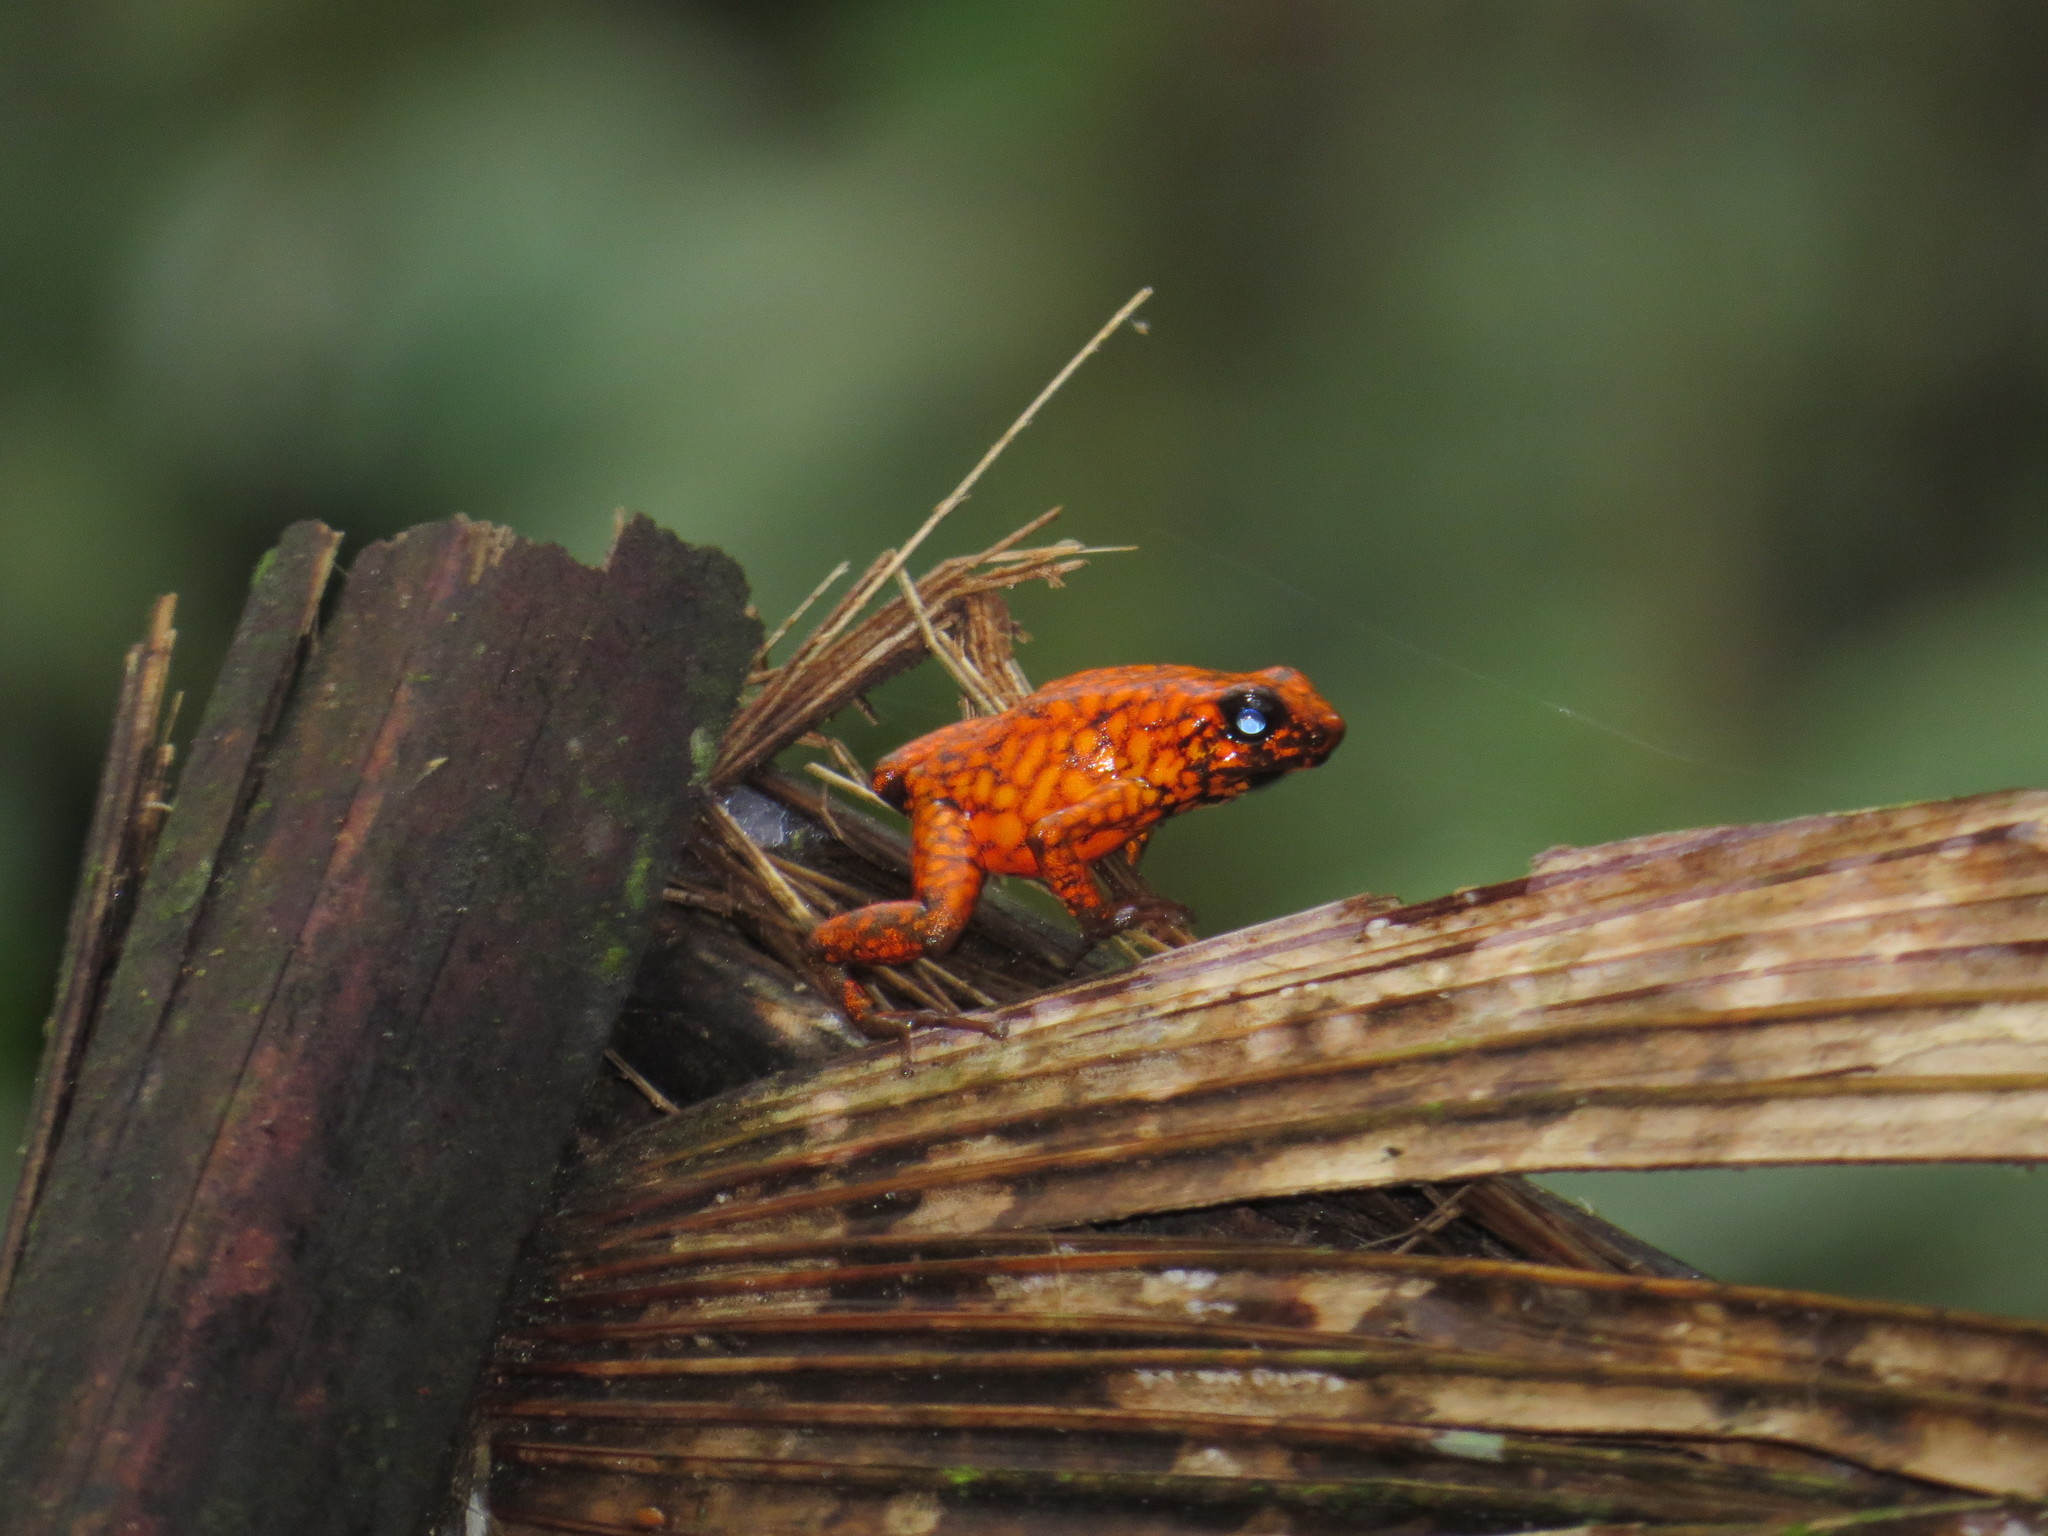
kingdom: Animalia
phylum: Chordata
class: Amphibia
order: Anura
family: Dendrobatidae
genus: Oophaga
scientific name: Oophaga sylvatica
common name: Little-devil poison frog
